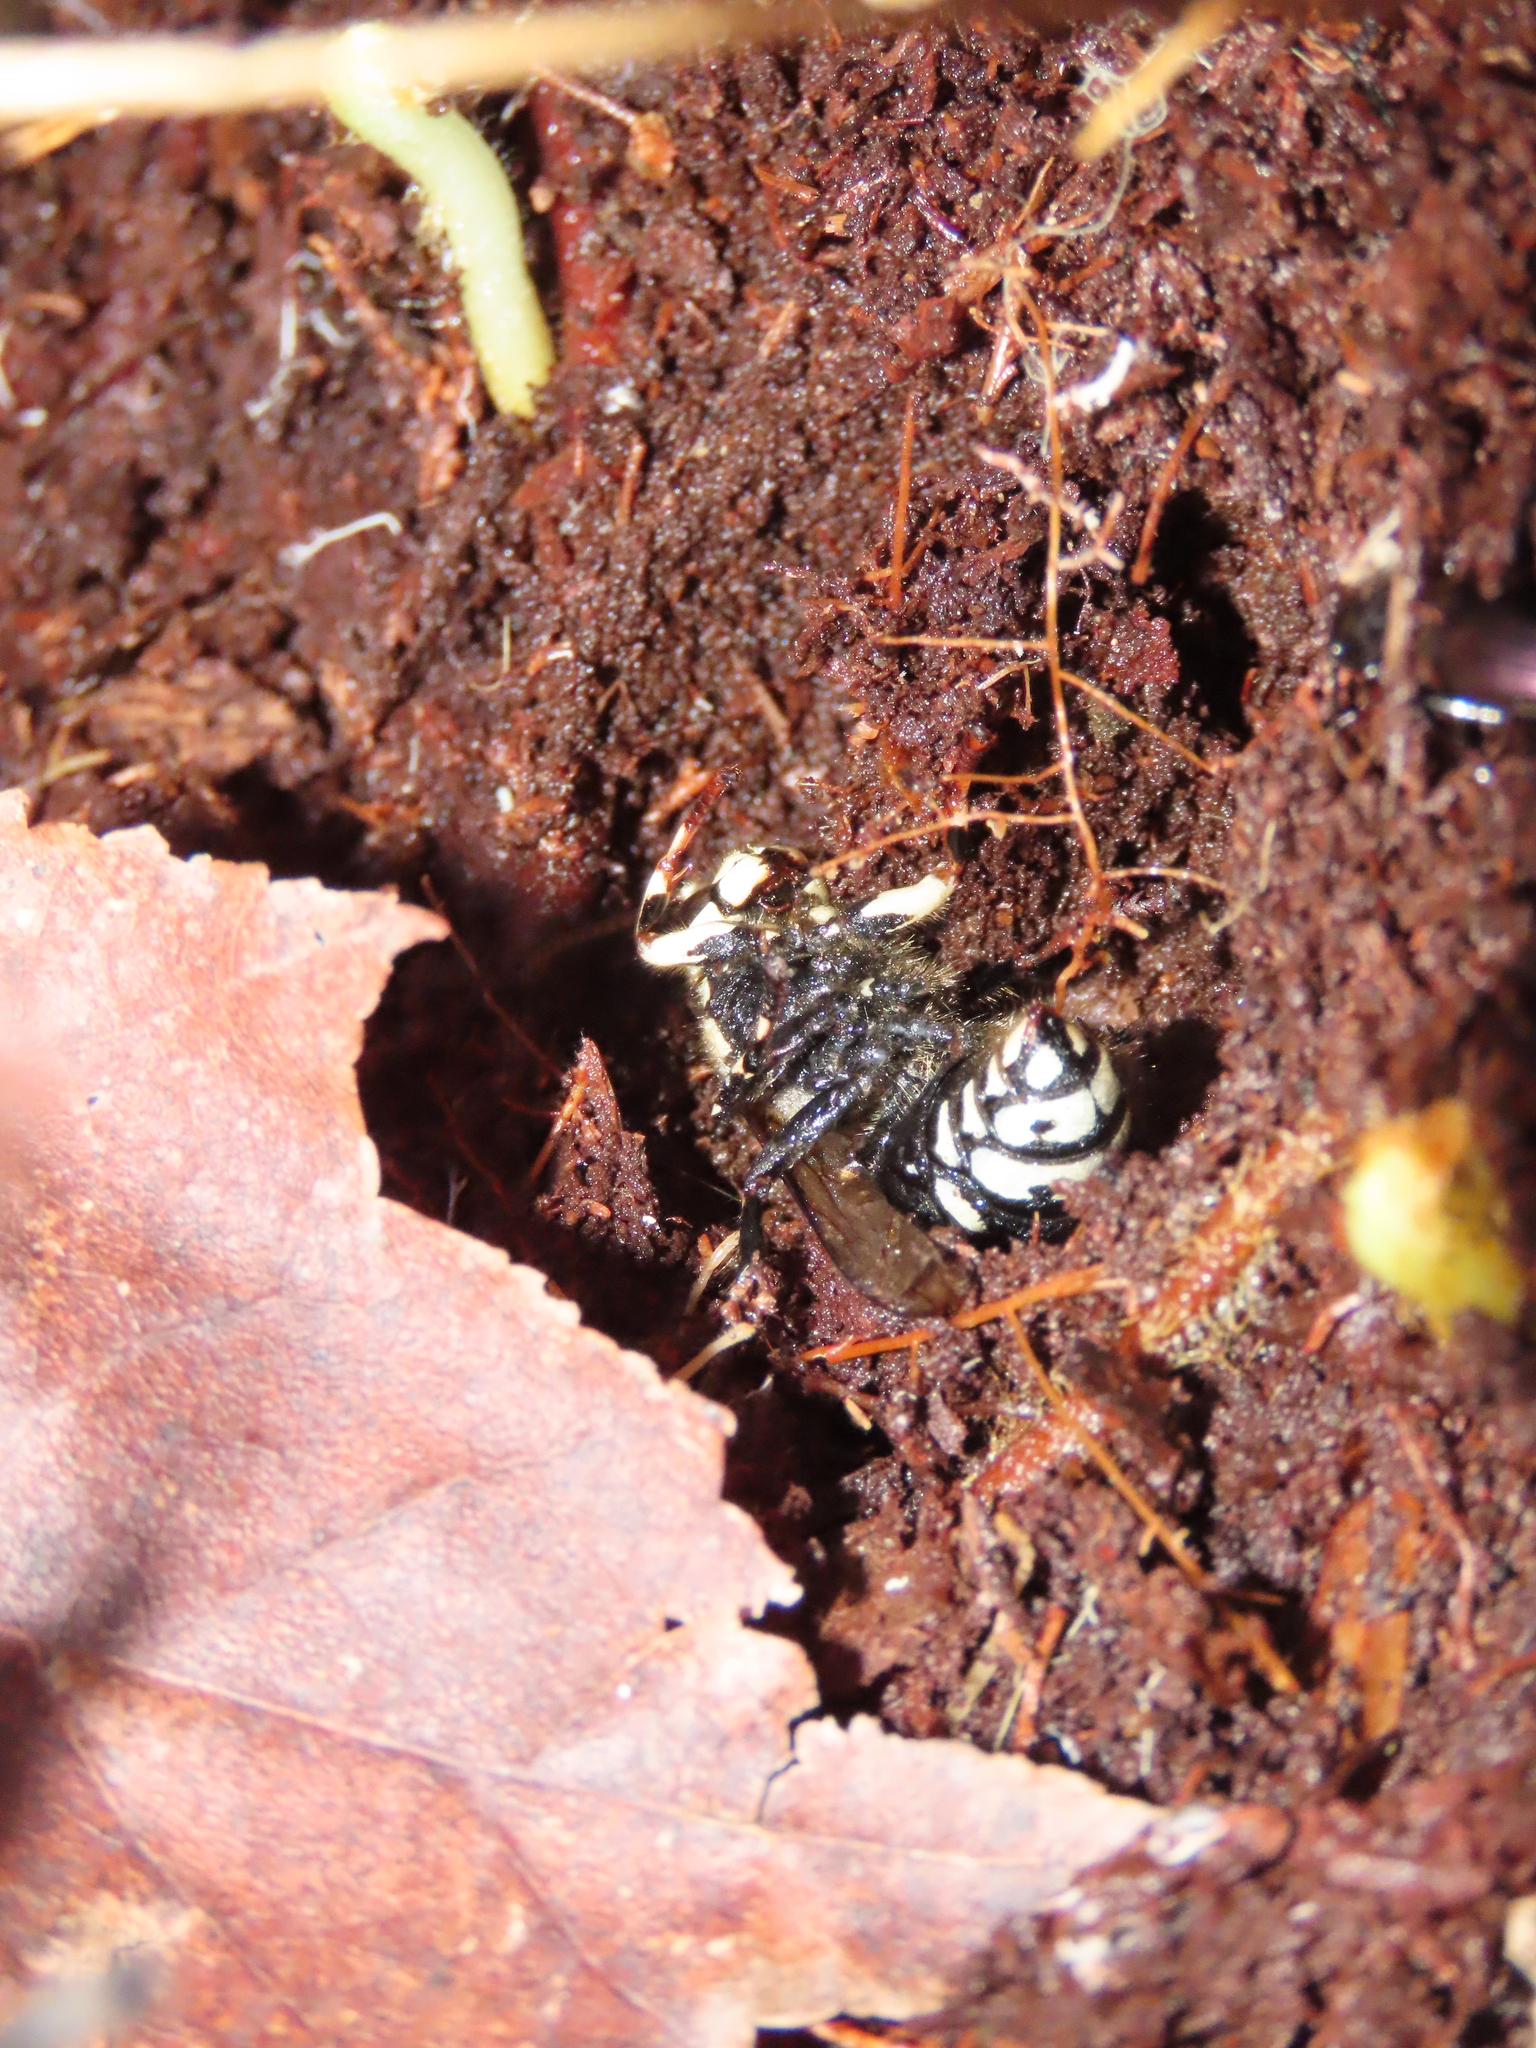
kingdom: Animalia
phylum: Arthropoda
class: Insecta
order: Hymenoptera
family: Vespidae
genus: Dolichovespula
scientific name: Dolichovespula maculata
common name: Bald-faced hornet
